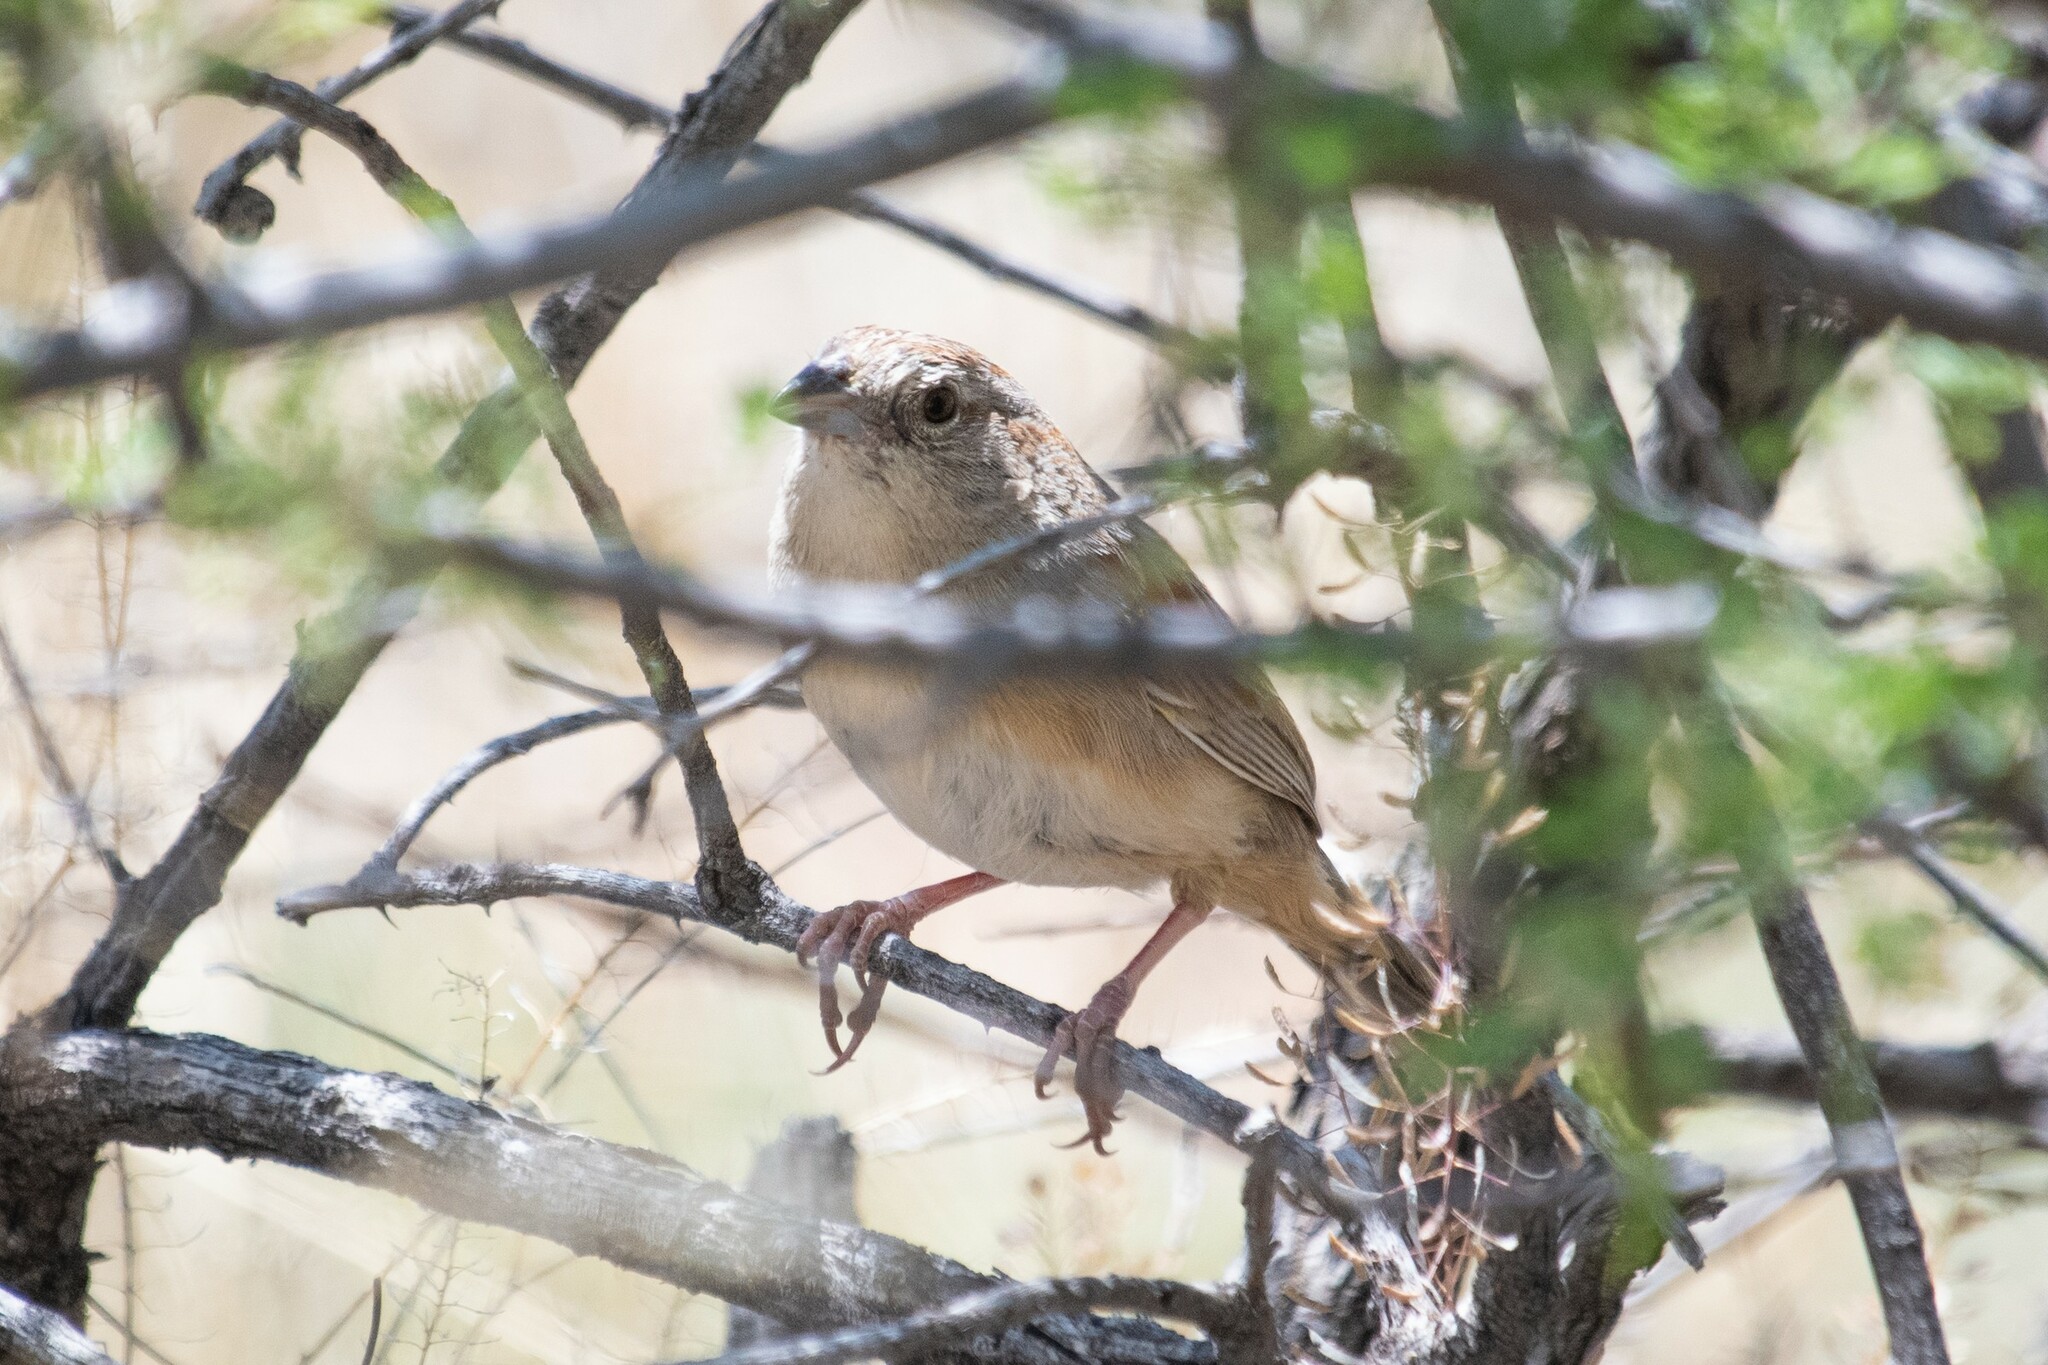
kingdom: Animalia
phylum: Chordata
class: Aves
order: Passeriformes
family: Passerellidae
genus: Peucaea
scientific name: Peucaea botterii
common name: Botteri's sparrow
